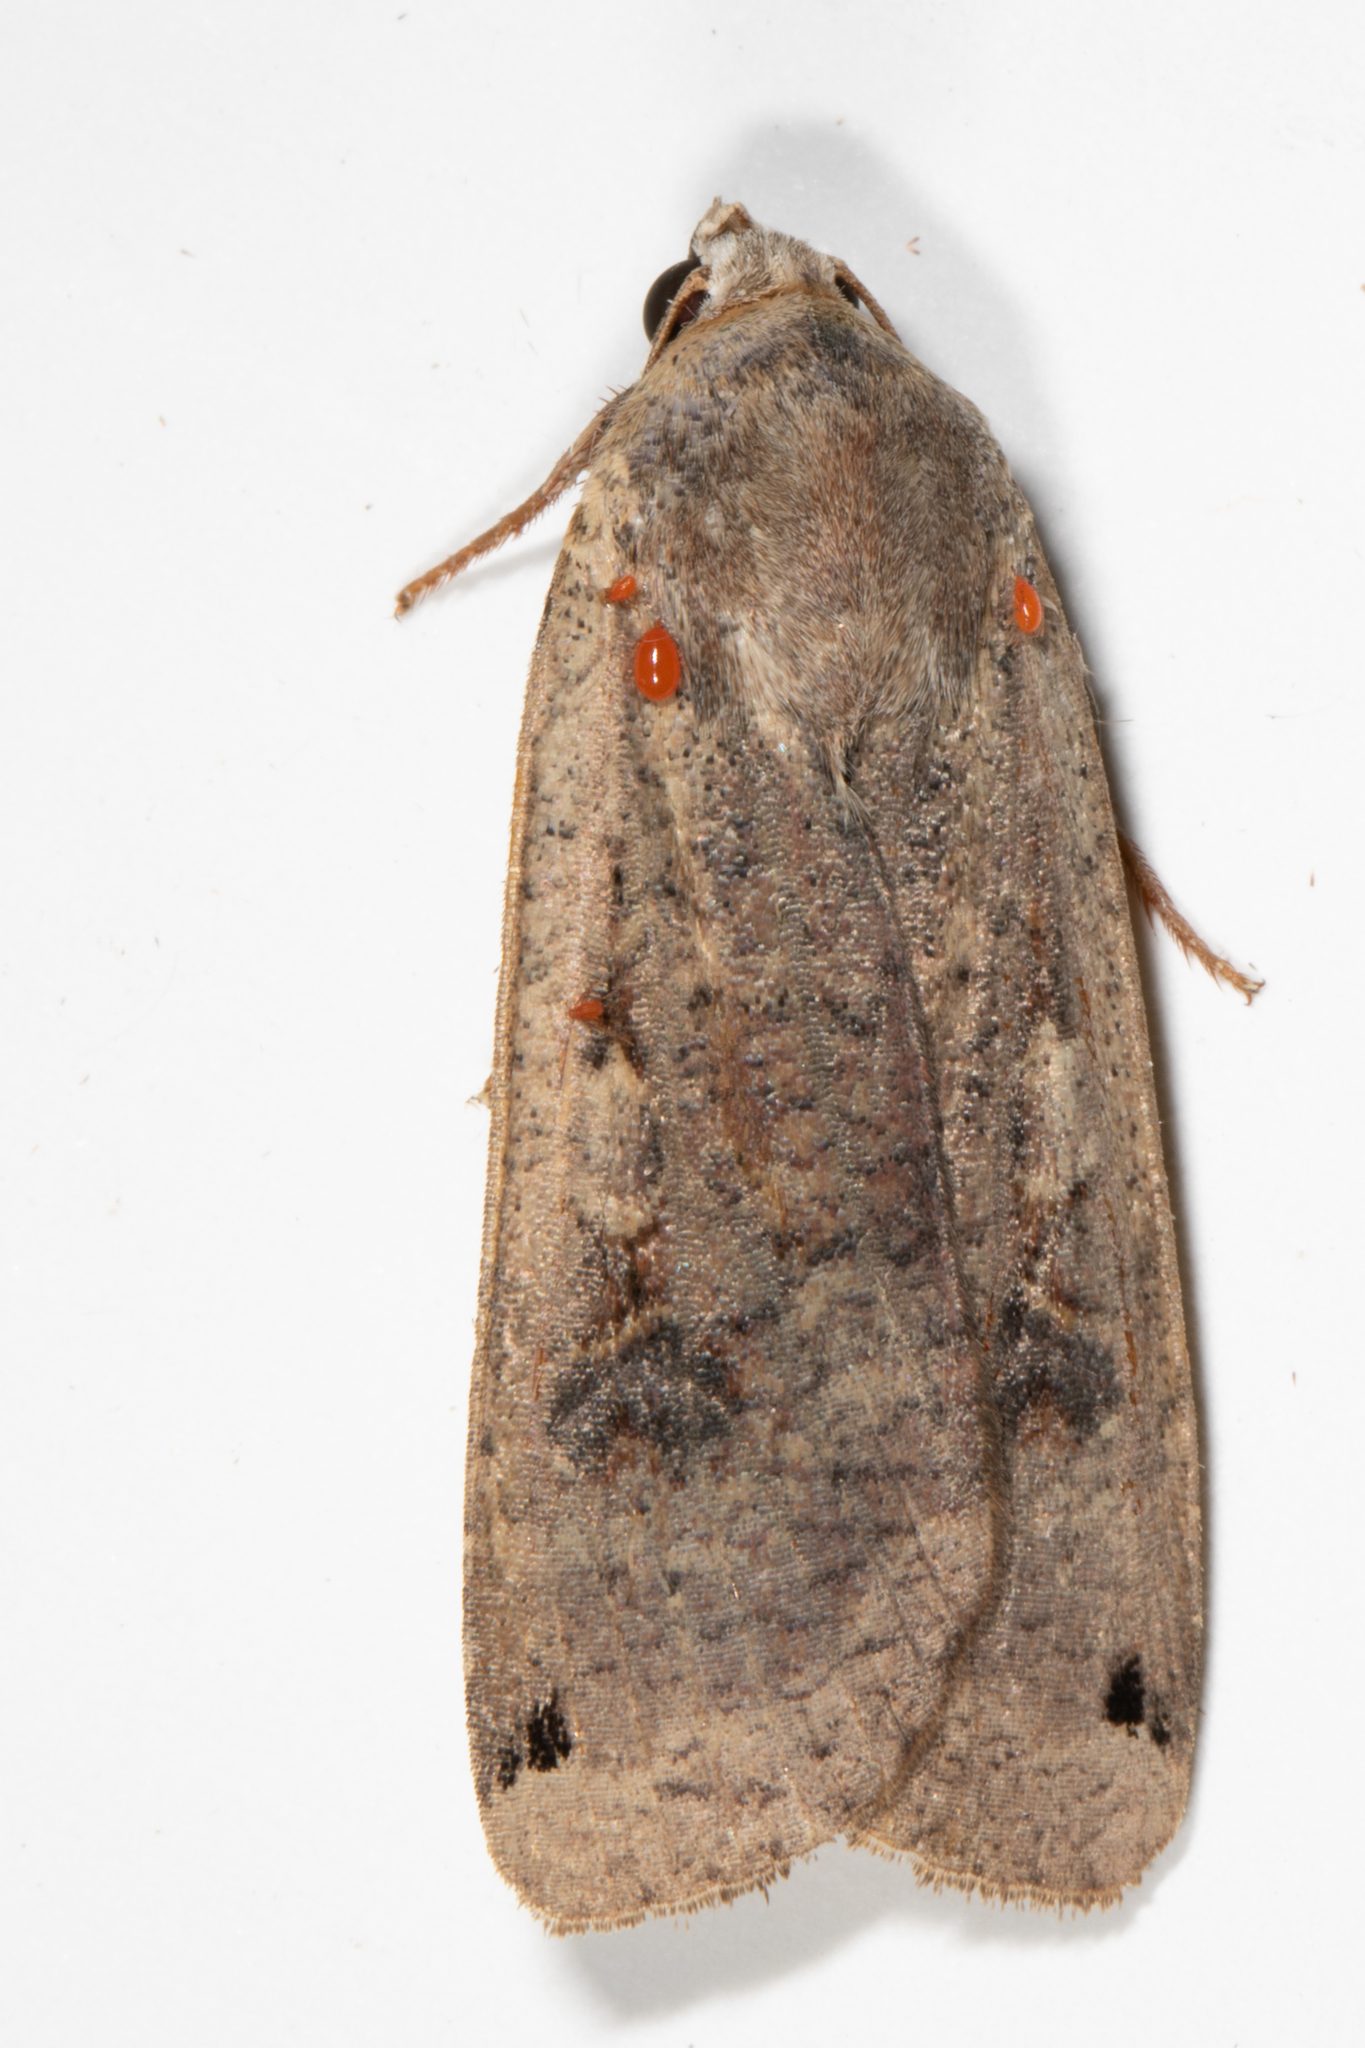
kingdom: Animalia
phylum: Arthropoda
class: Insecta
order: Lepidoptera
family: Noctuidae
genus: Noctua
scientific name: Noctua pronuba
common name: Large yellow underwing
